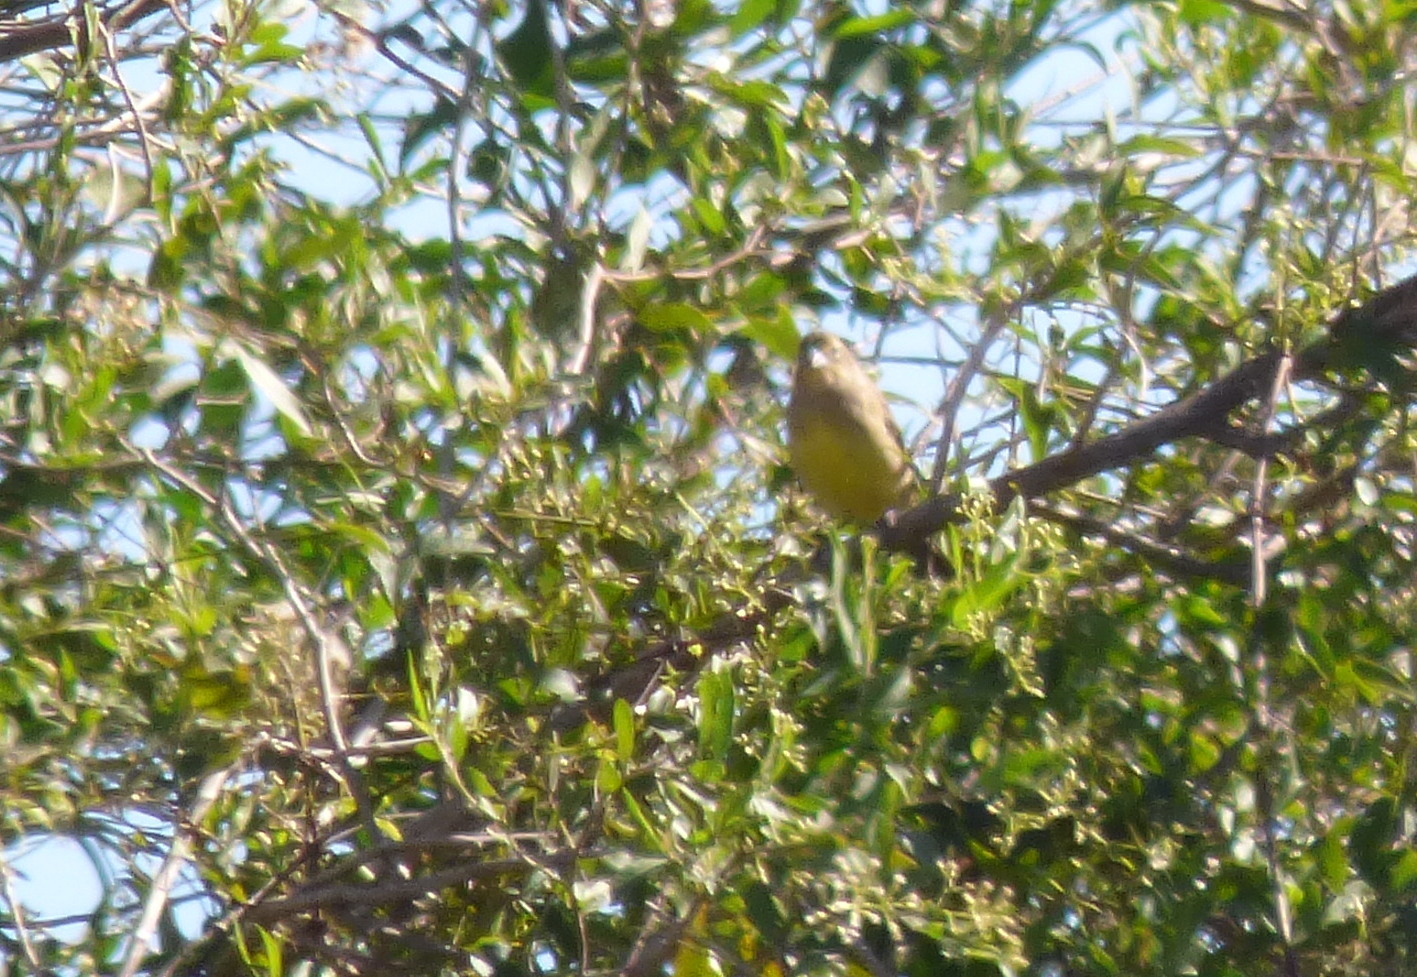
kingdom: Animalia
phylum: Chordata
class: Aves
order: Passeriformes
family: Thraupidae
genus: Sicalis
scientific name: Sicalis luteola
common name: Grassland yellow-finch
